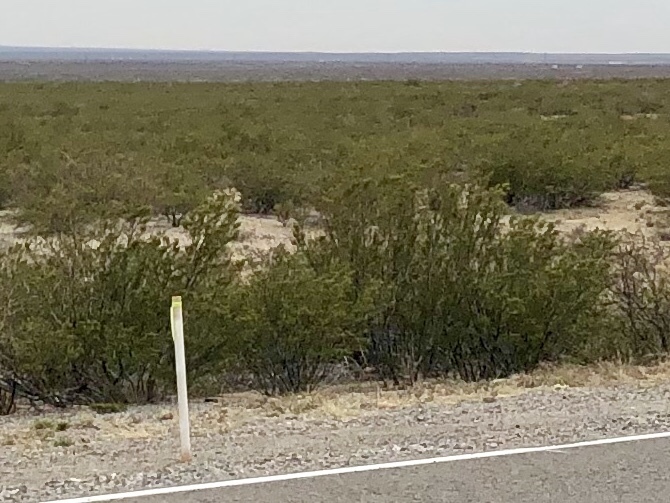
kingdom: Plantae
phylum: Tracheophyta
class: Magnoliopsida
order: Zygophyllales
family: Zygophyllaceae
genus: Larrea
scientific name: Larrea tridentata
